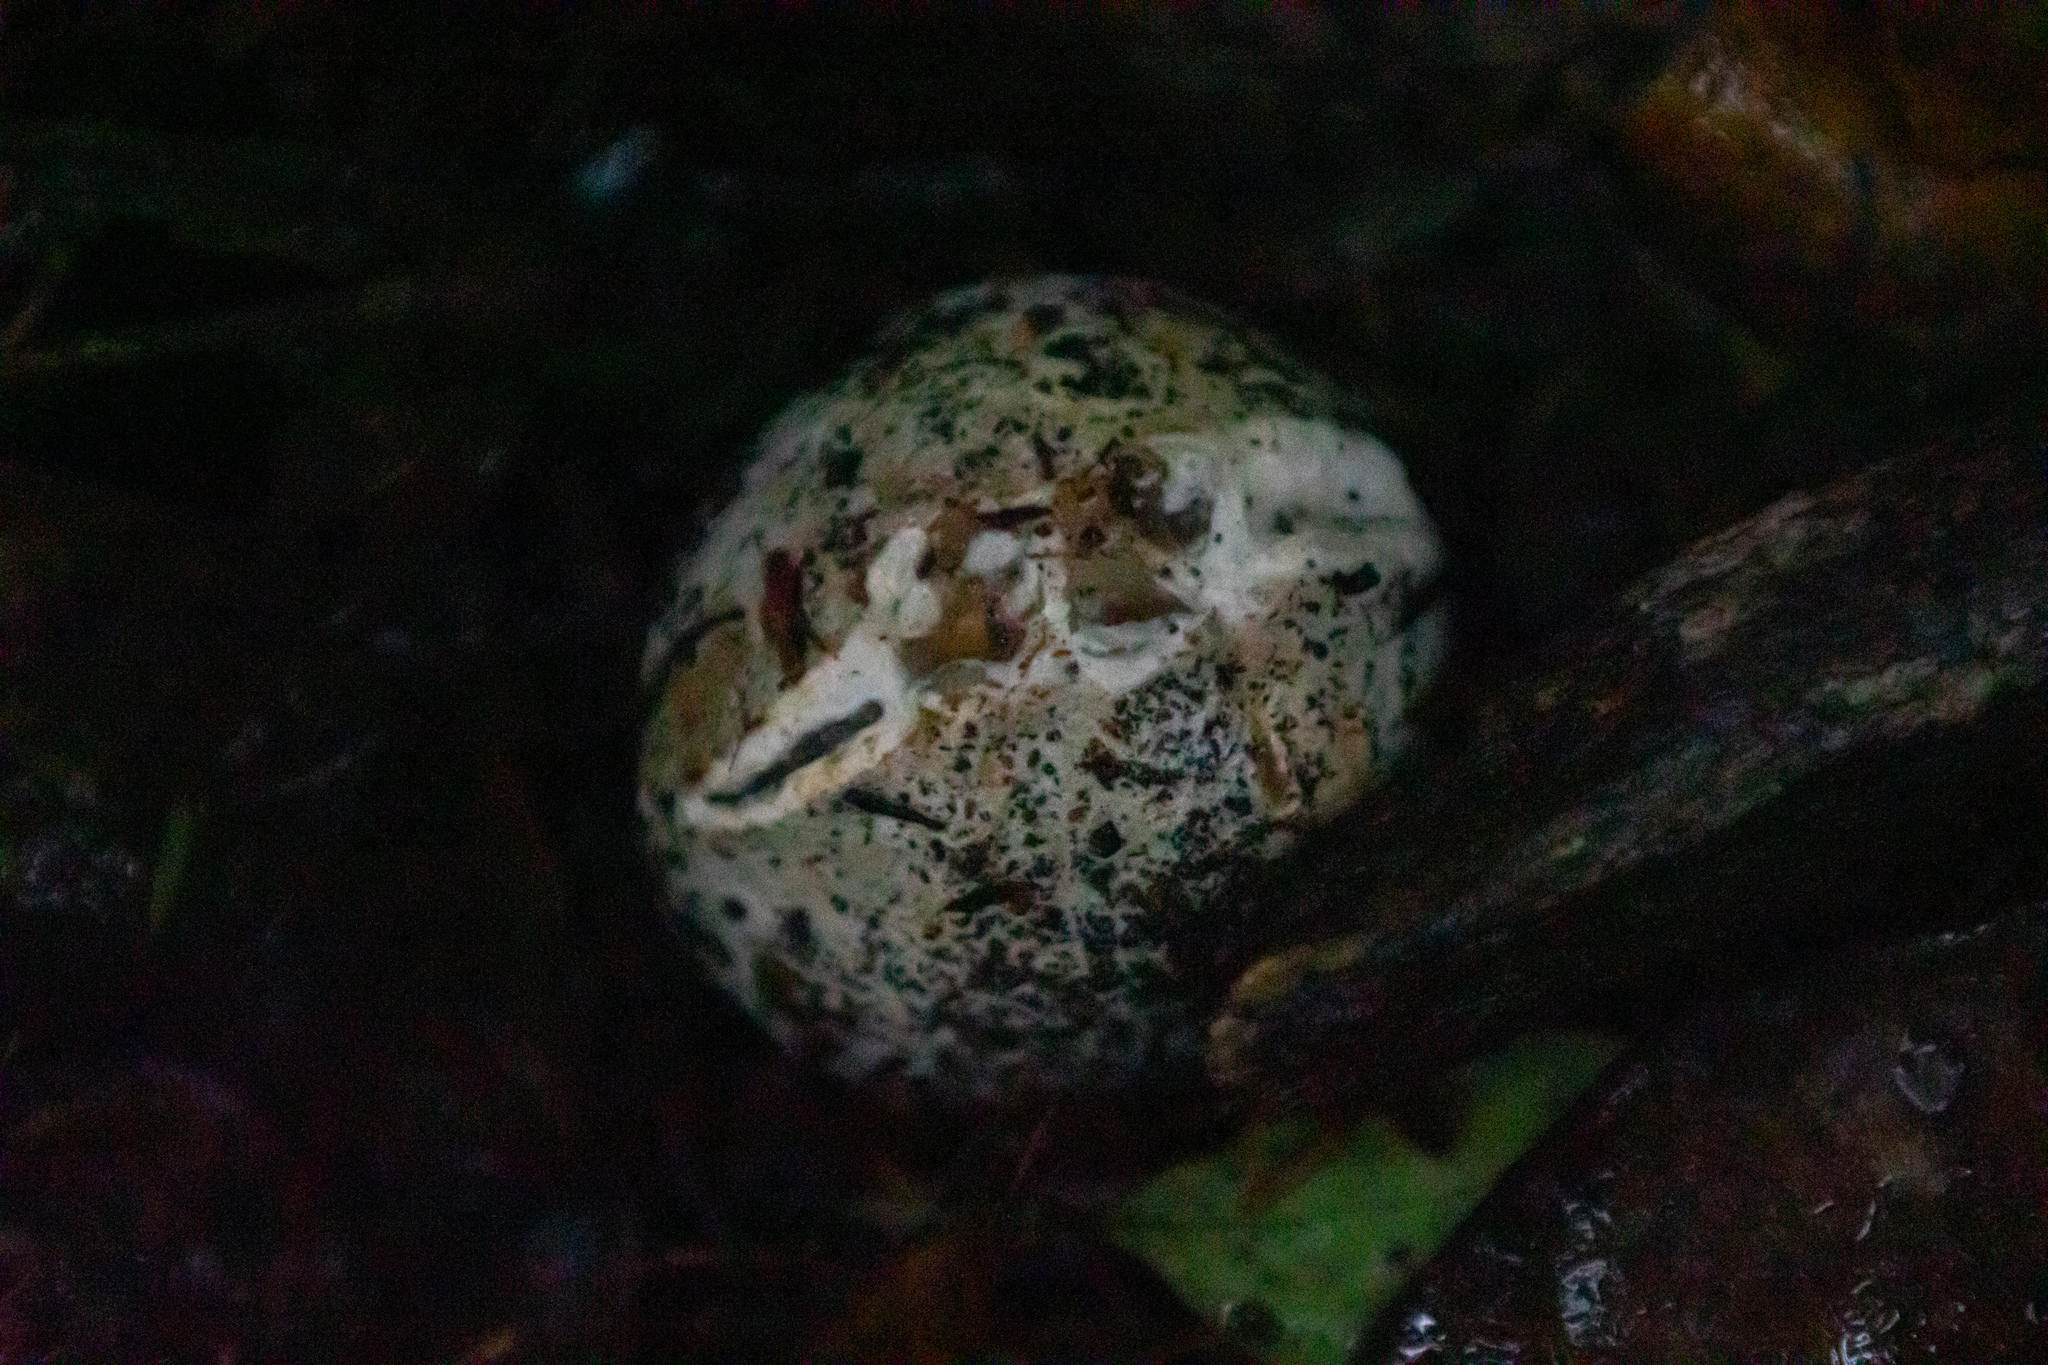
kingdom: Fungi
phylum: Basidiomycota
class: Agaricomycetes
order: Phallales
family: Phallaceae
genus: Ileodictyon
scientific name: Ileodictyon cibarium
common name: Basket fungus
